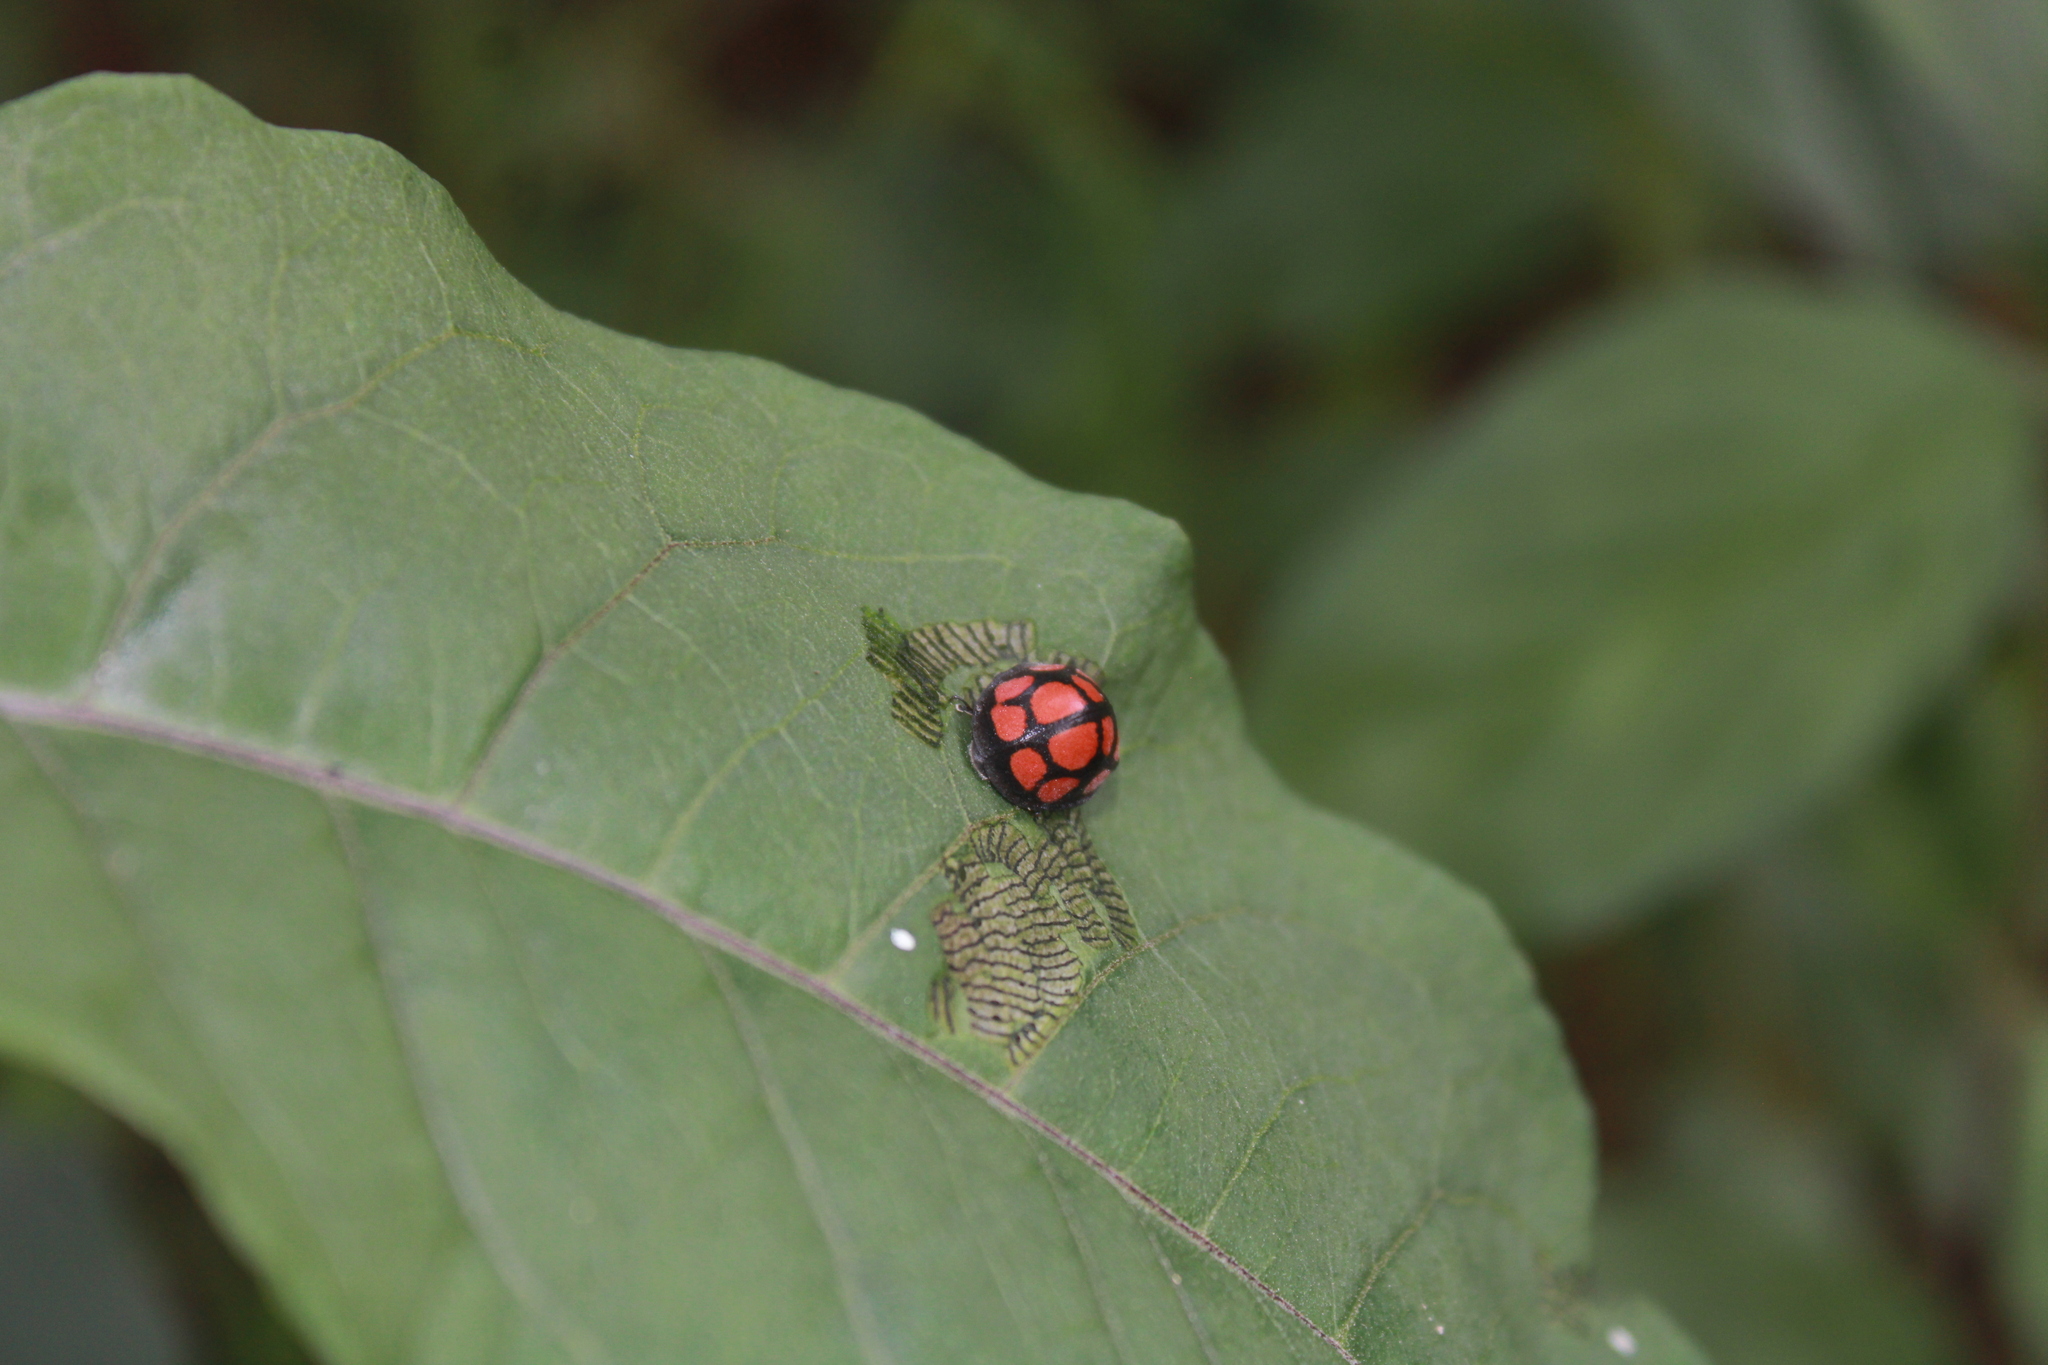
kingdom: Animalia
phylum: Arthropoda
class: Insecta
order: Coleoptera
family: Coccinellidae
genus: Epilachna
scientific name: Epilachna
